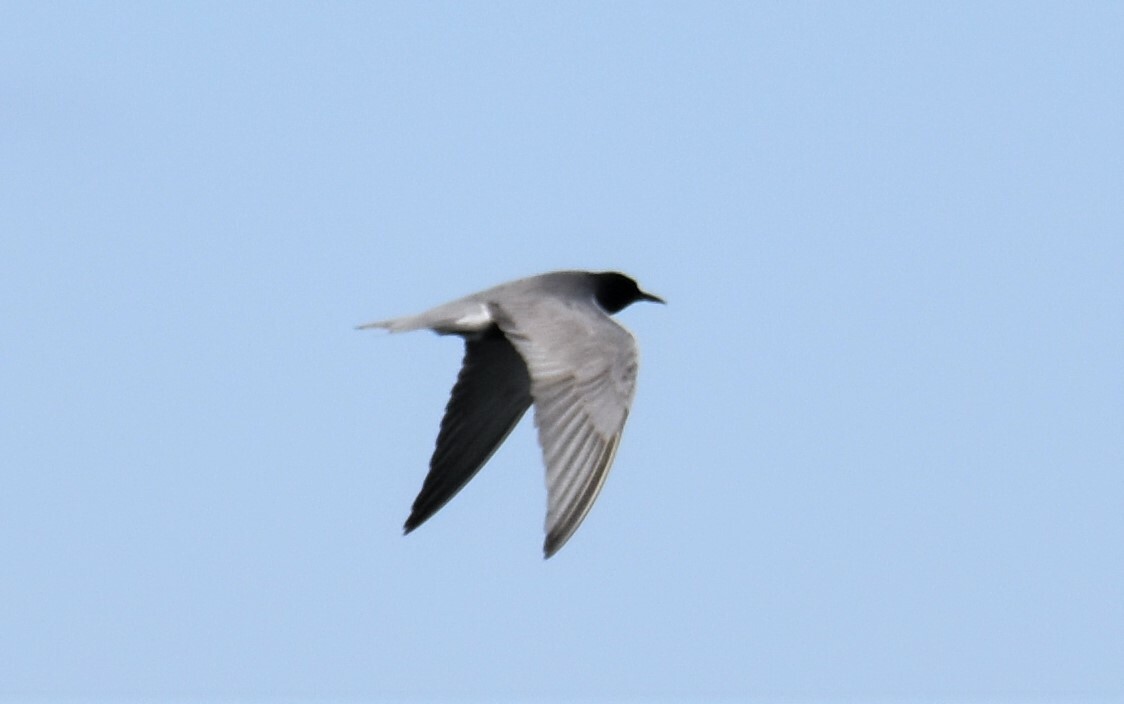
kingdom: Animalia
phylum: Chordata
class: Aves
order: Charadriiformes
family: Laridae
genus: Chlidonias
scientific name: Chlidonias niger
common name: Black tern
